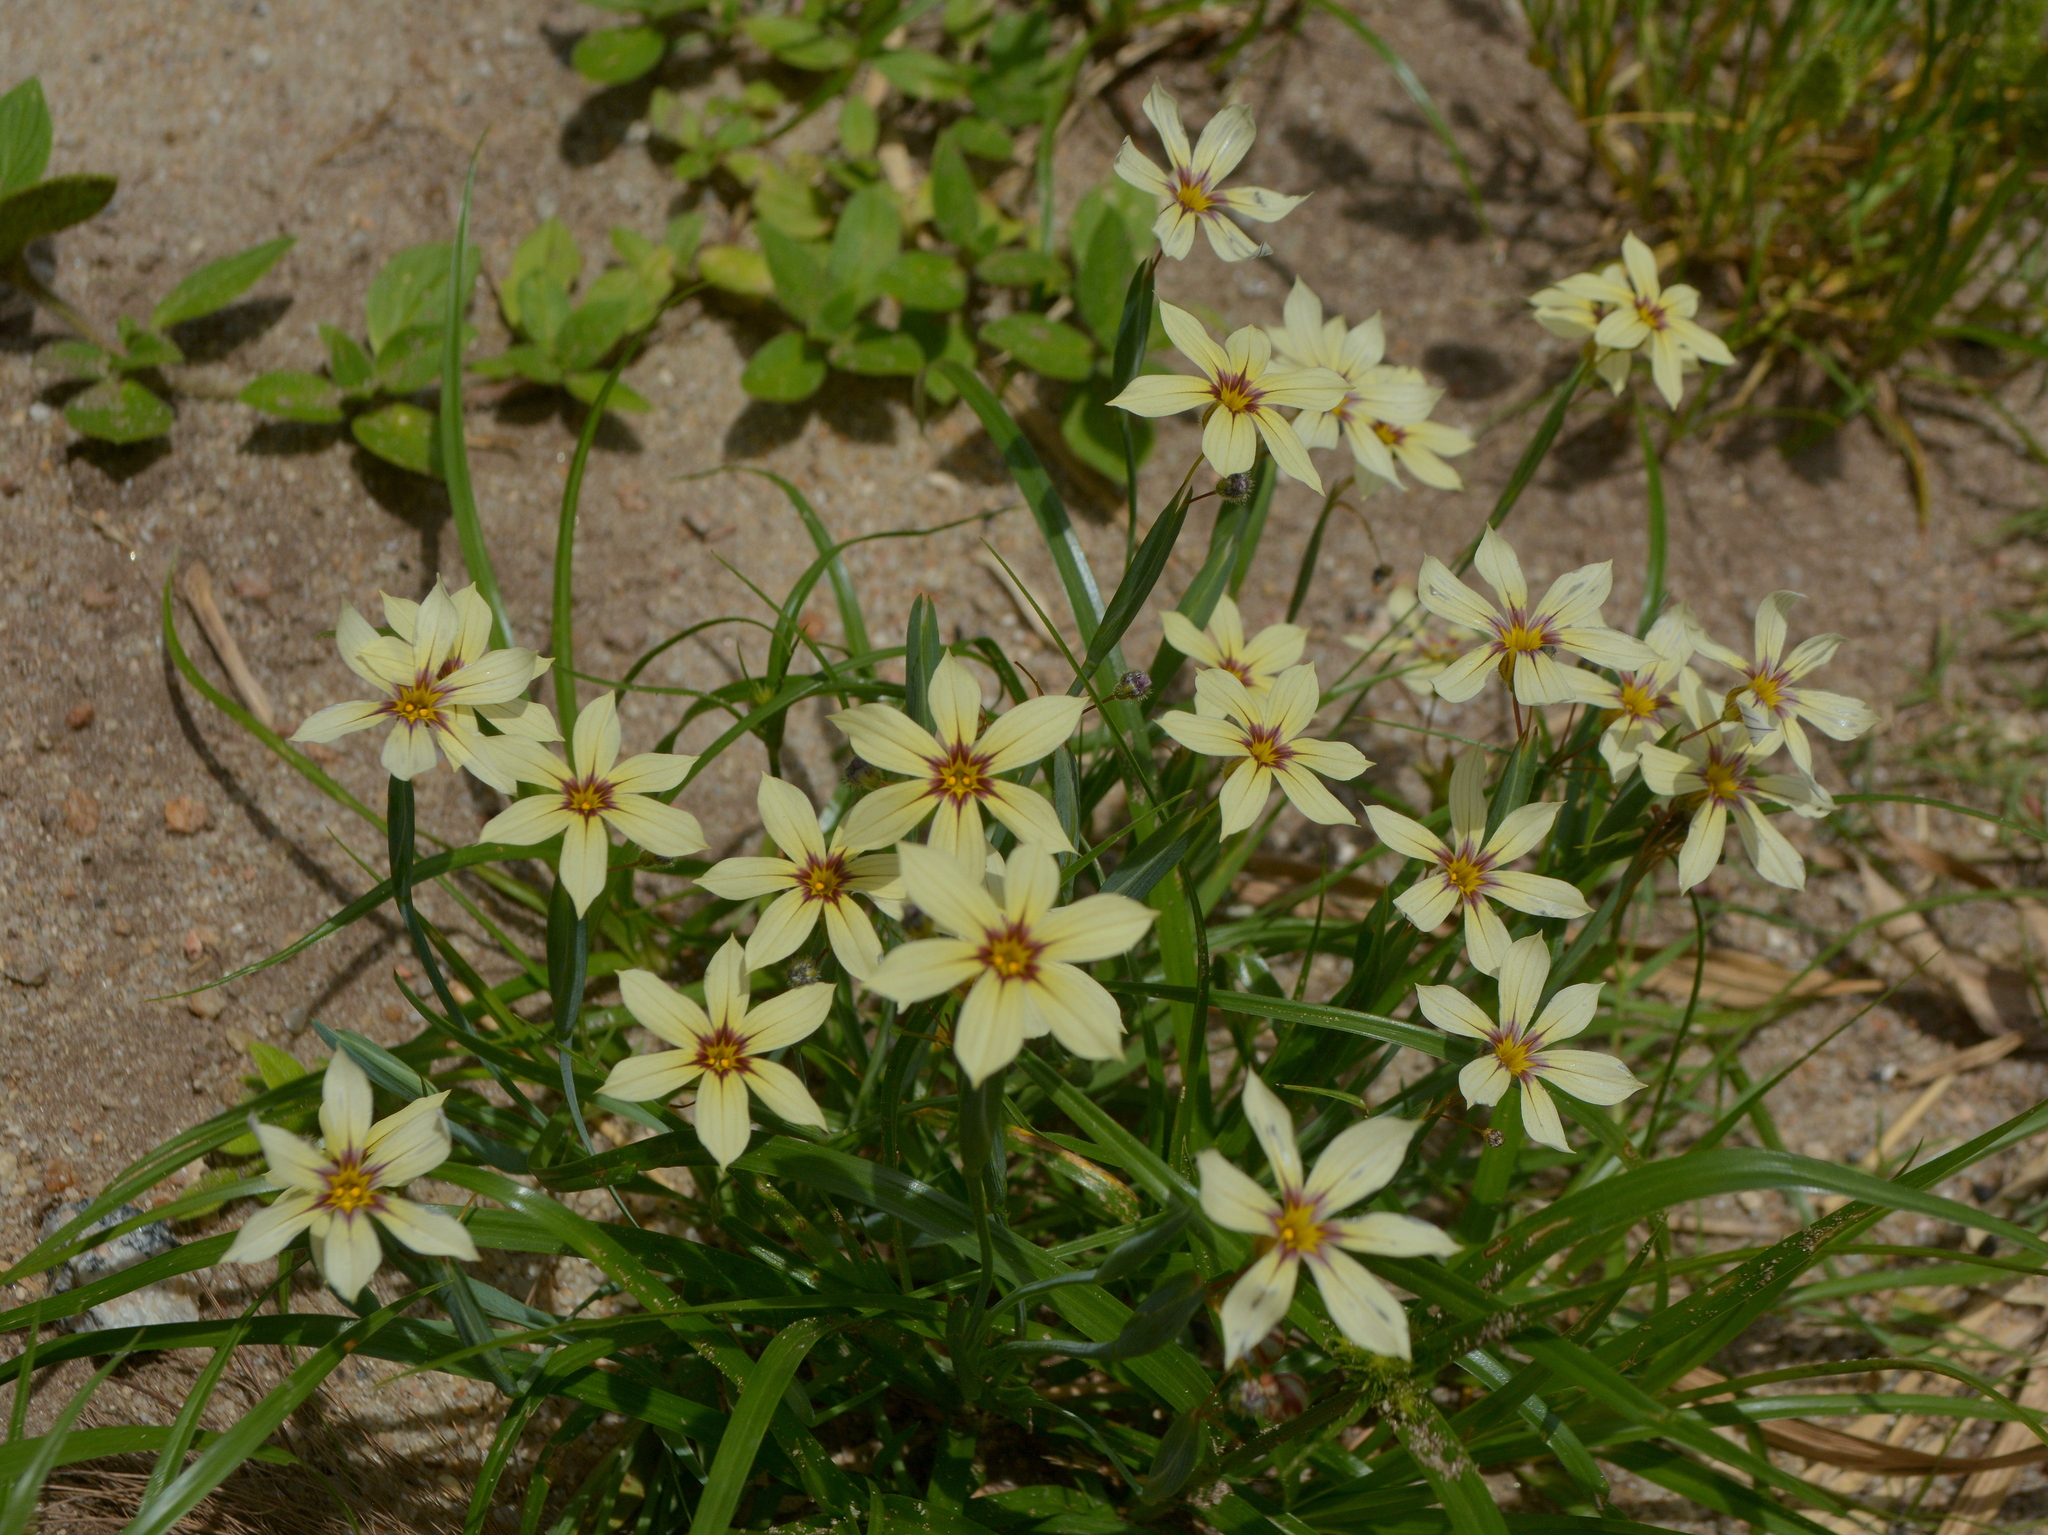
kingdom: Plantae
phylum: Tracheophyta
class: Liliopsida
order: Asparagales
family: Iridaceae
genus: Sisyrinchium
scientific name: Sisyrinchium micranthum
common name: Bermuda pigroot
